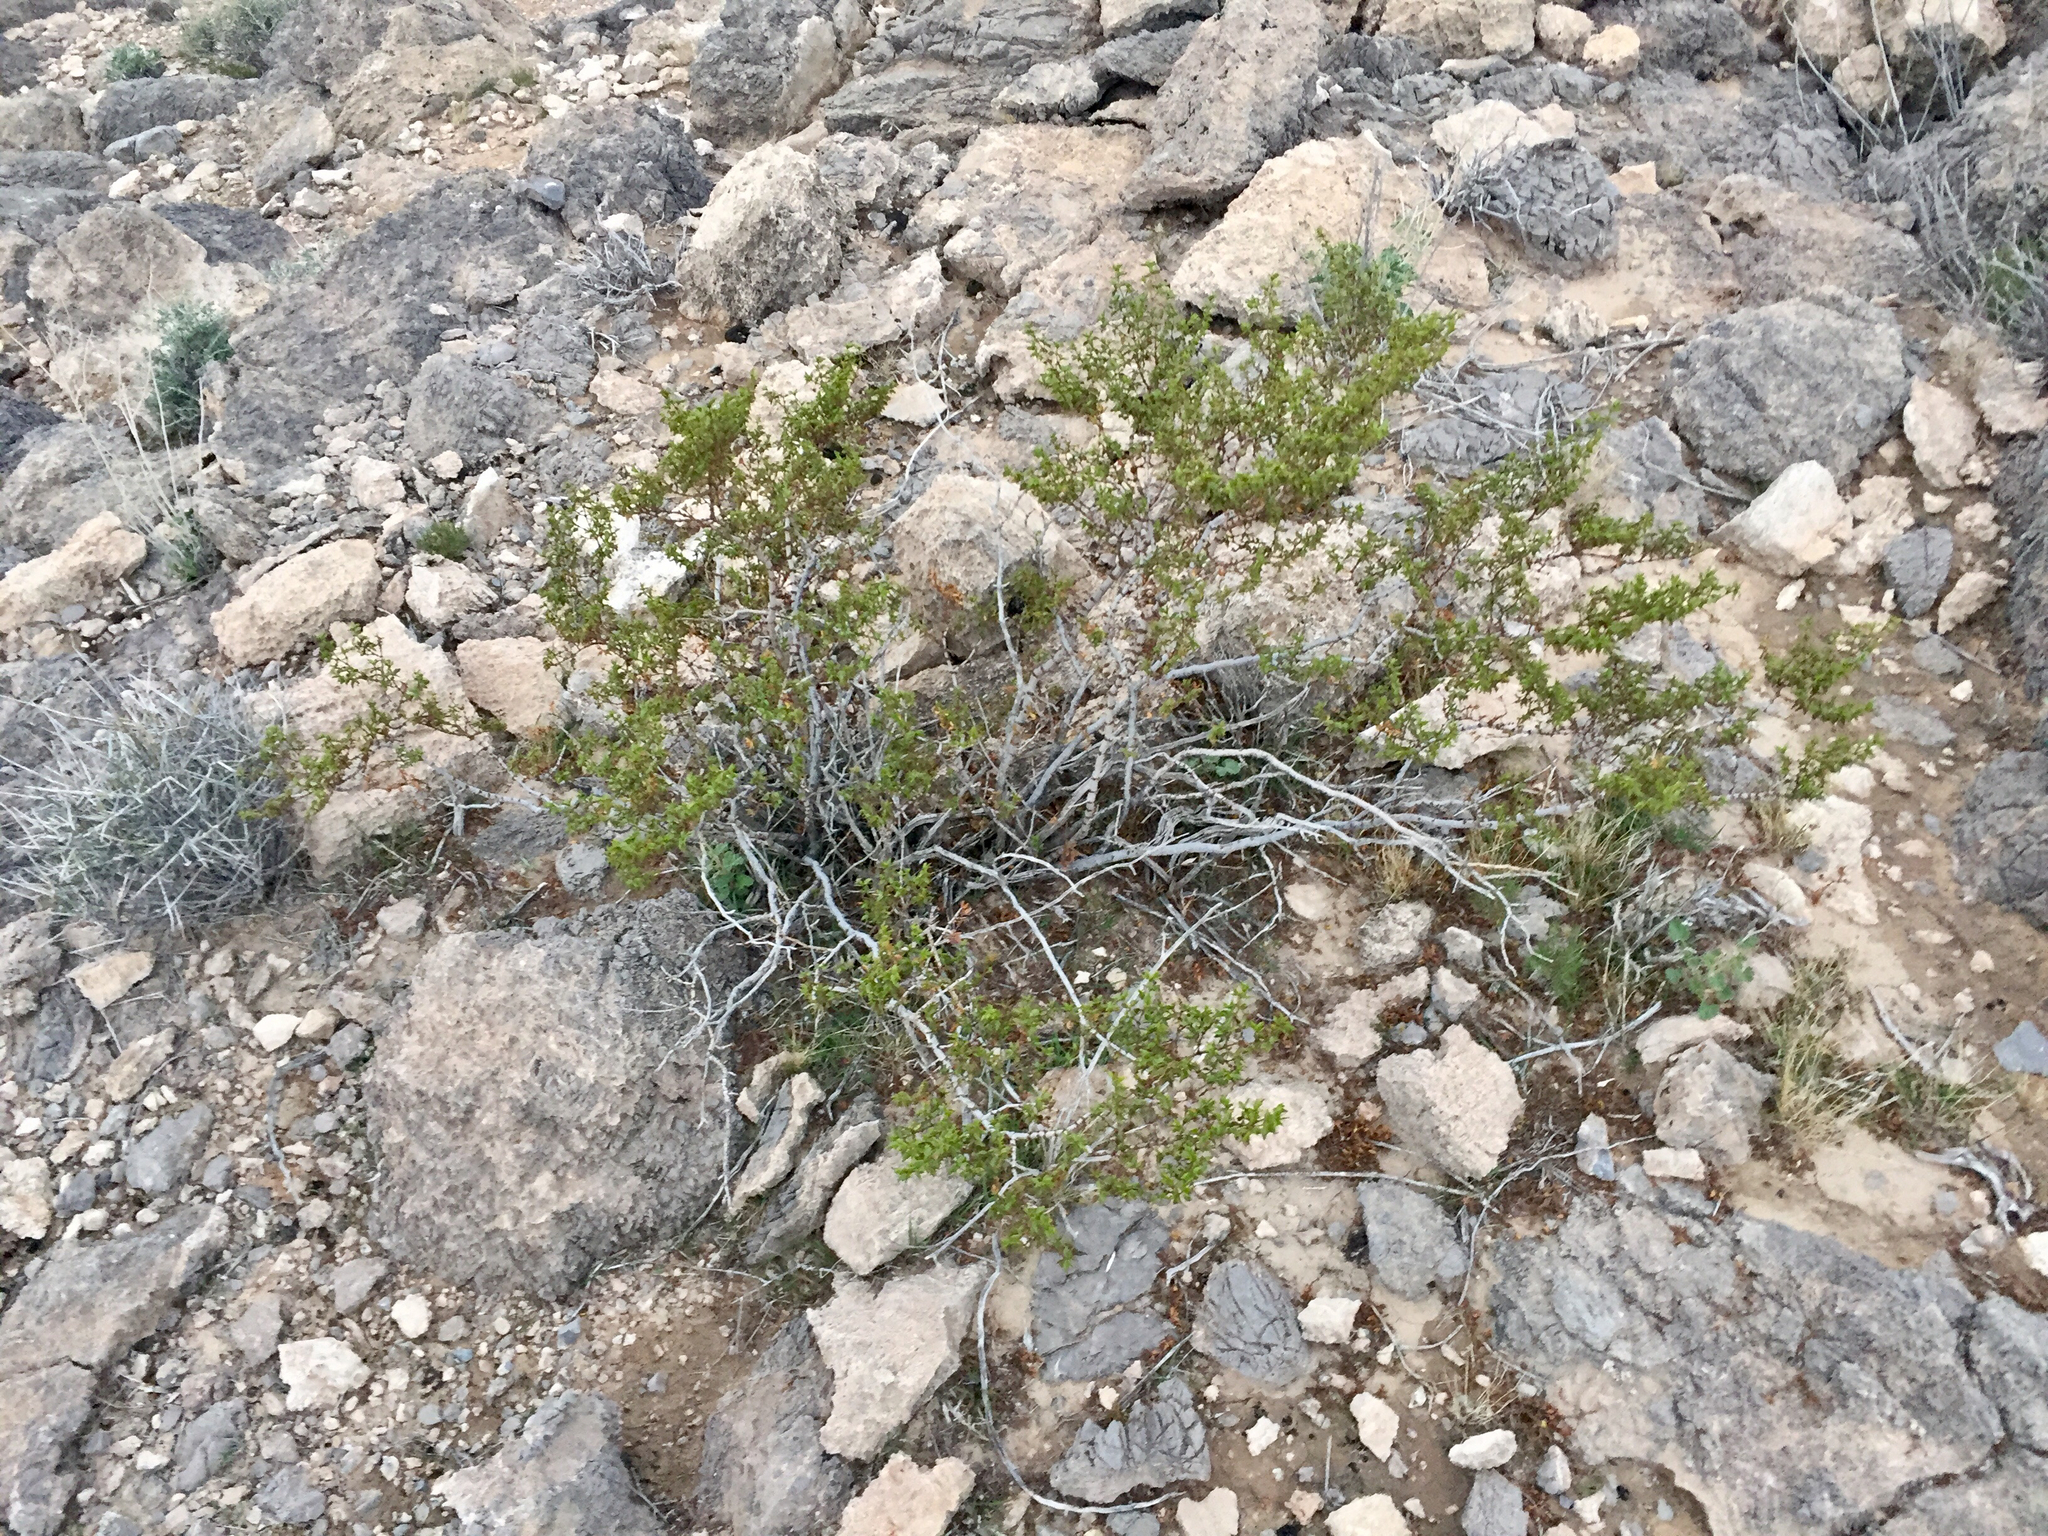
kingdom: Plantae
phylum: Tracheophyta
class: Magnoliopsida
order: Zygophyllales
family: Zygophyllaceae
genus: Larrea
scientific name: Larrea tridentata
